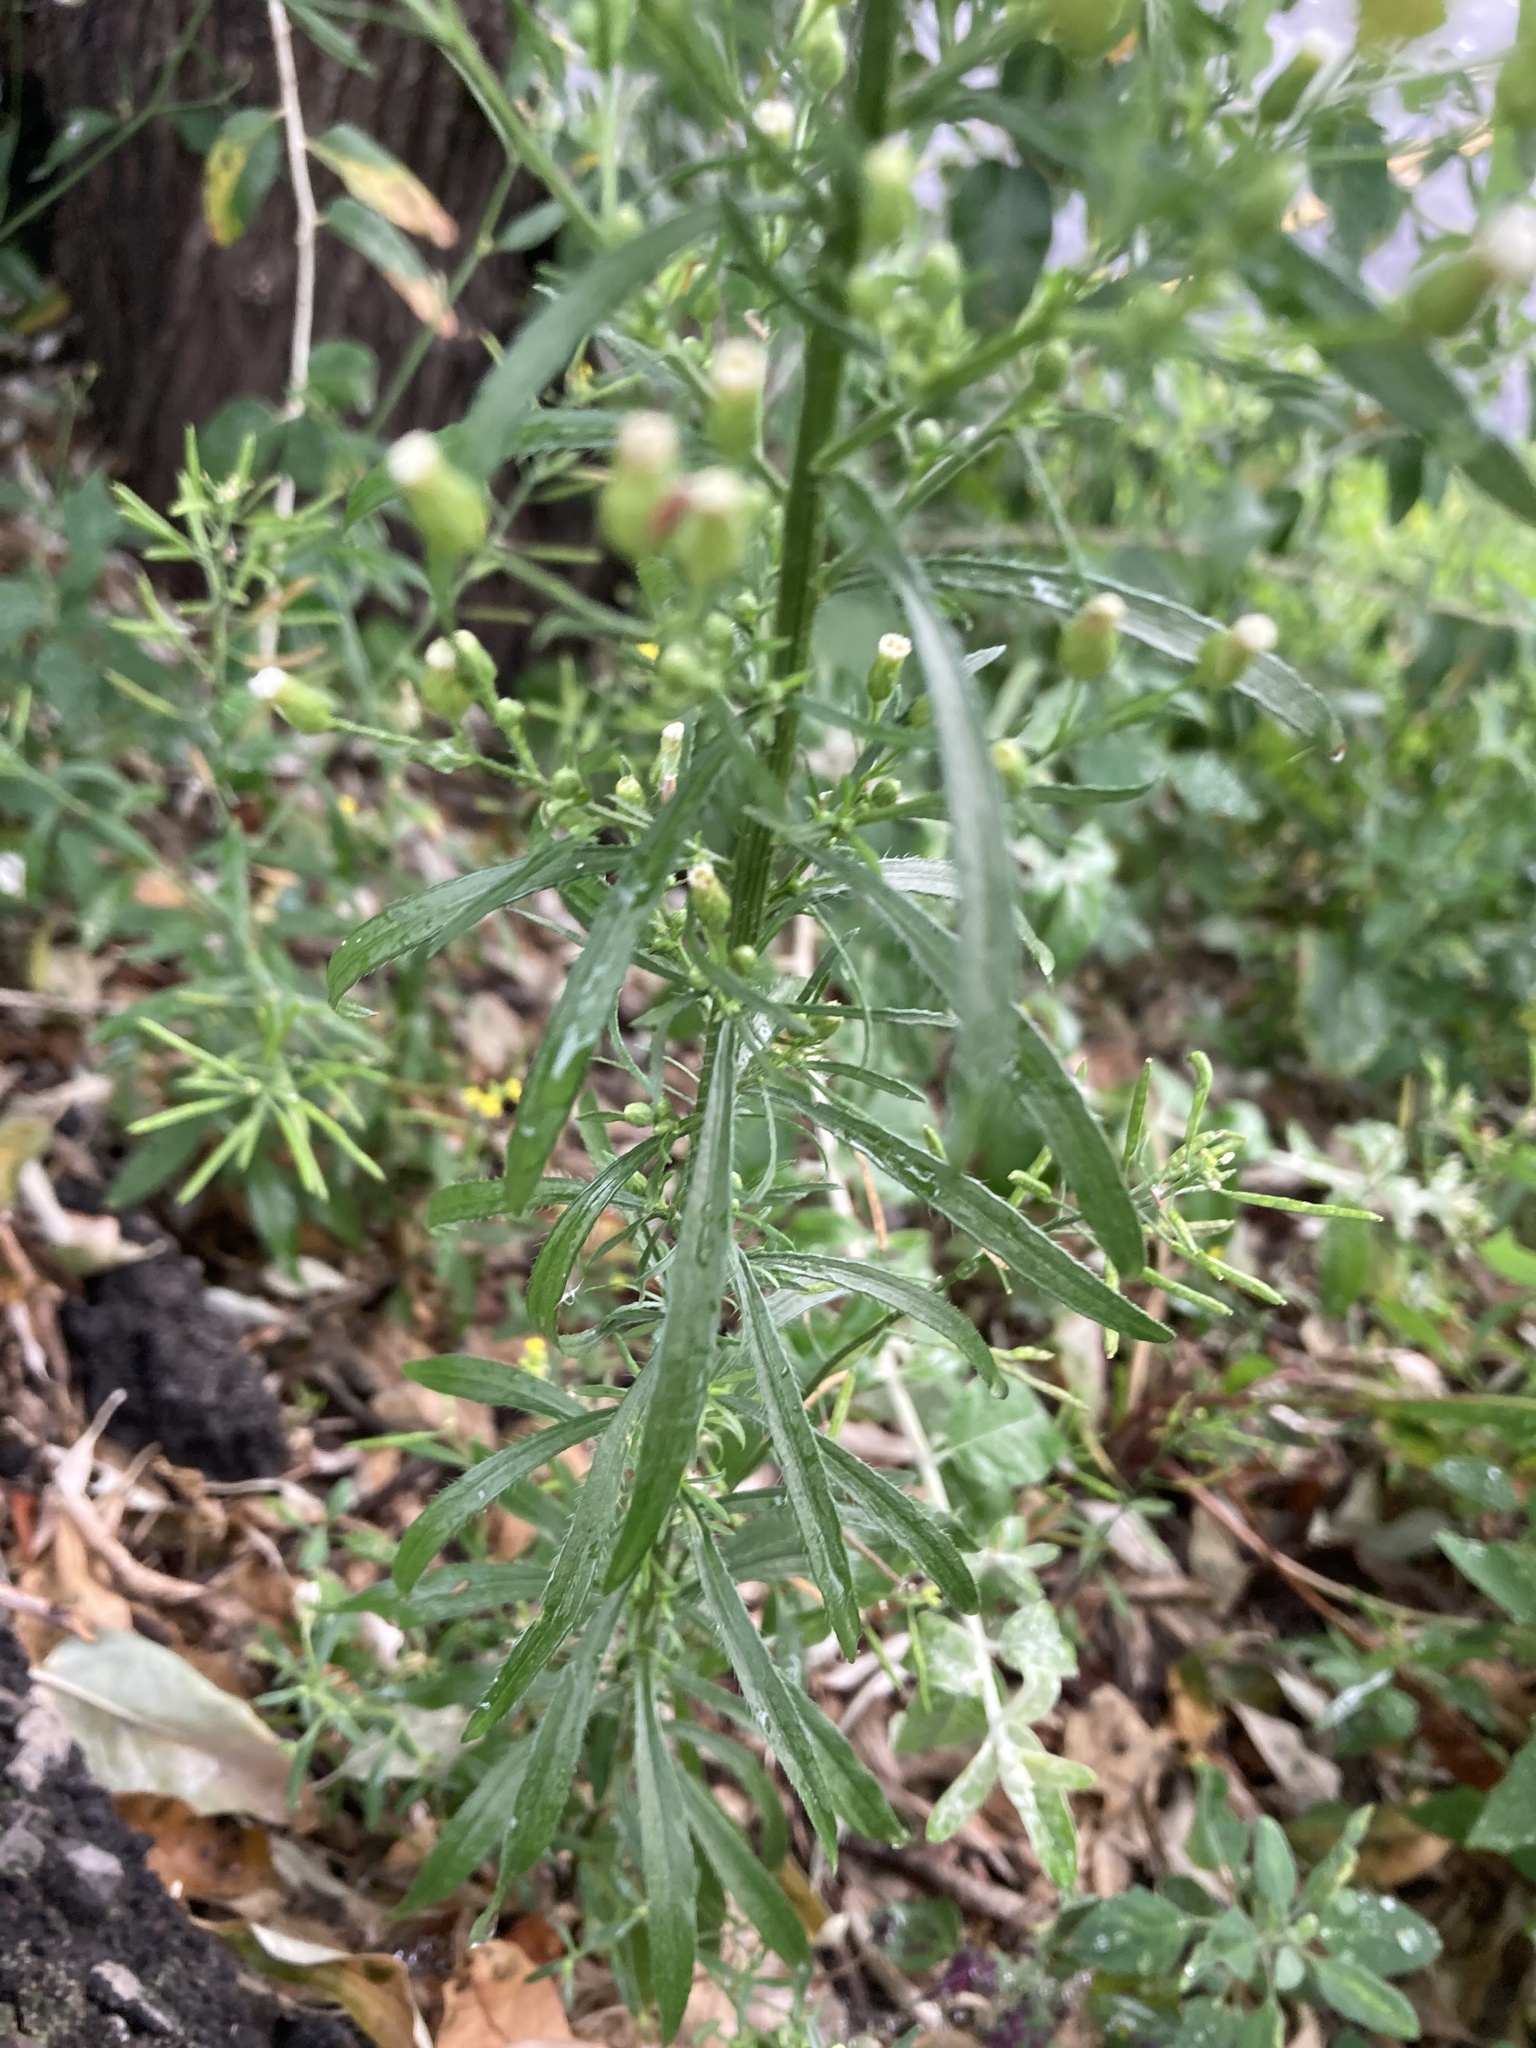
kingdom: Plantae
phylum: Tracheophyta
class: Magnoliopsida
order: Asterales
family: Asteraceae
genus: Erigeron
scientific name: Erigeron canadensis
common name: Canadian fleabane
